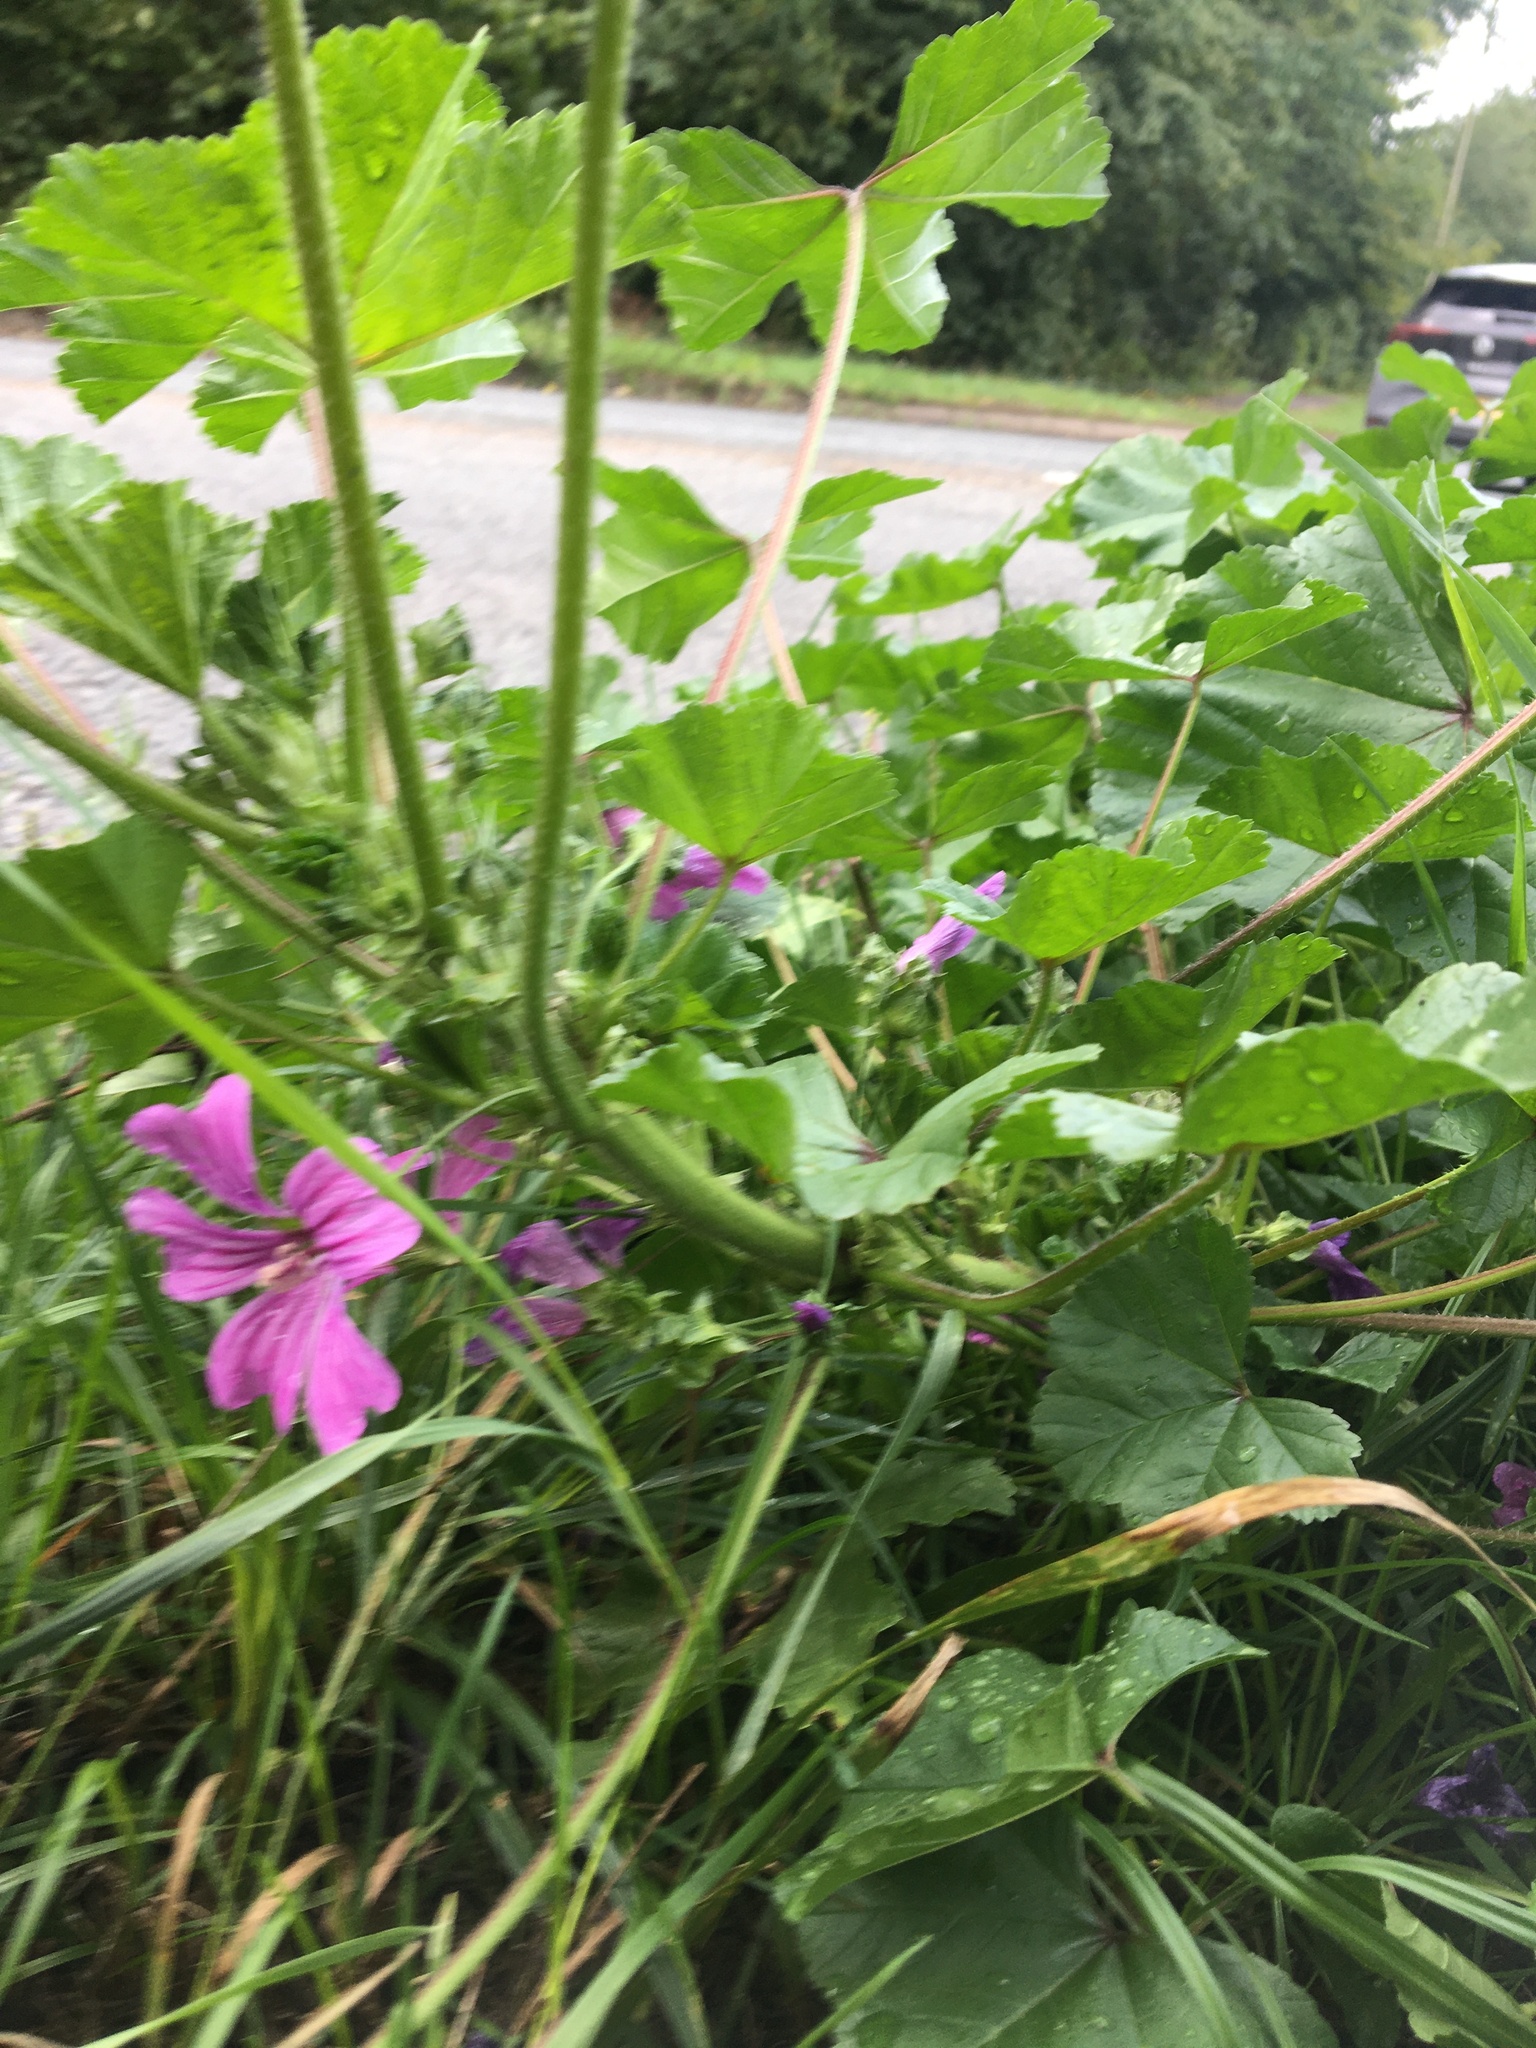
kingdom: Plantae
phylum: Tracheophyta
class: Magnoliopsida
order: Malvales
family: Malvaceae
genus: Malva
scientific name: Malva sylvestris
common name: Common mallow
